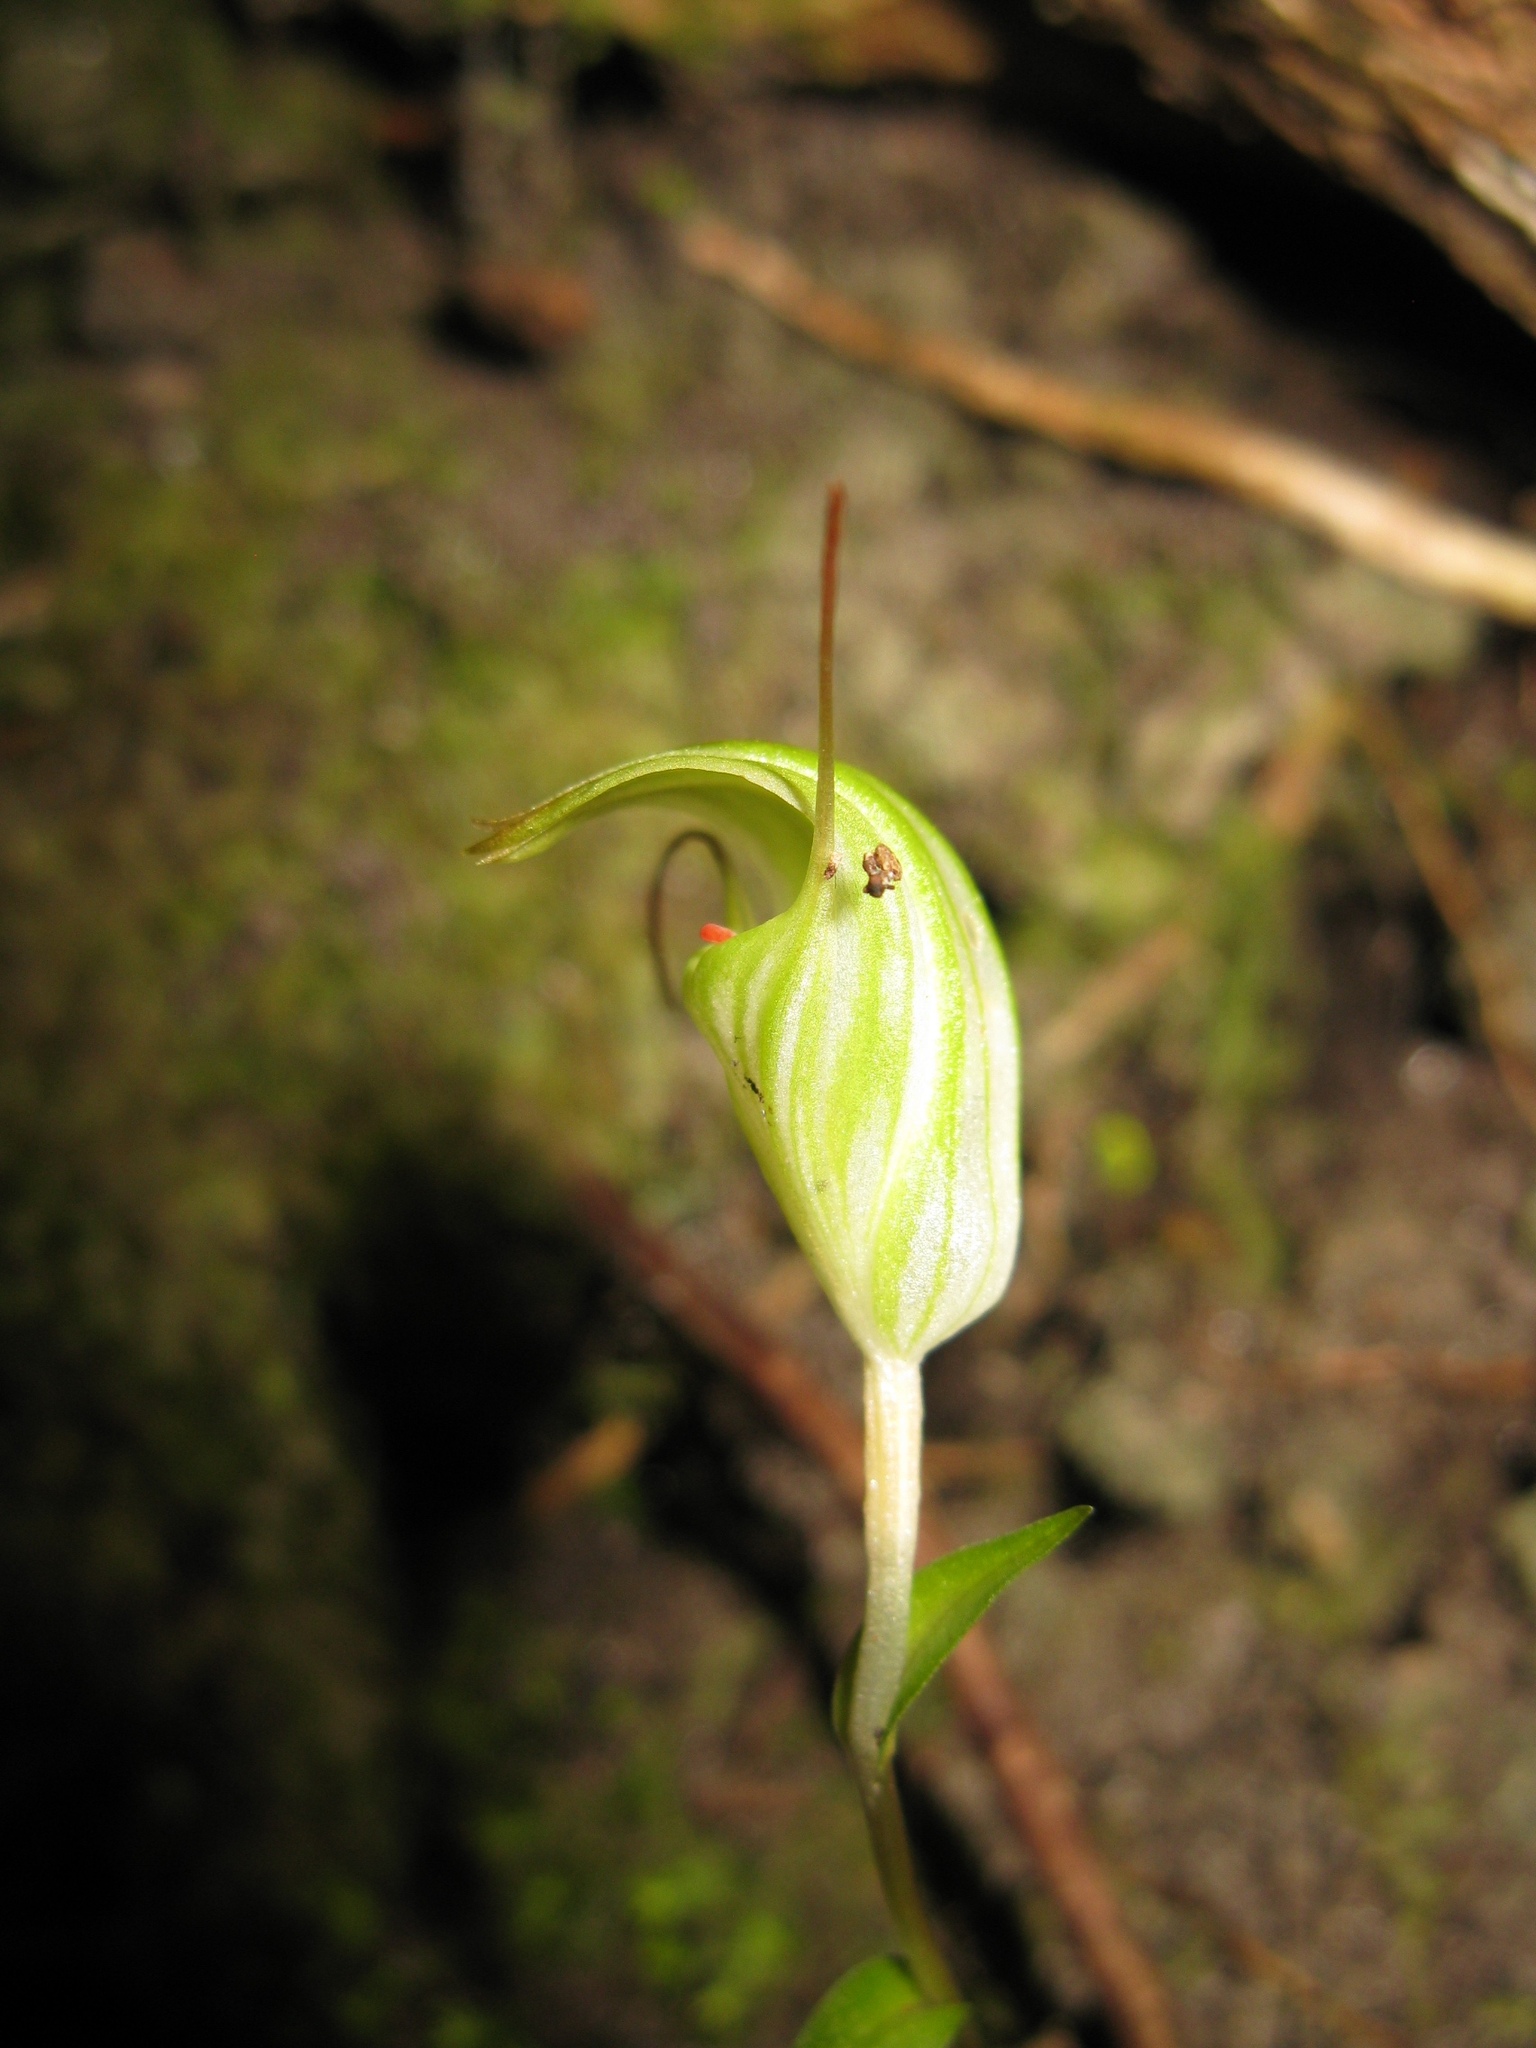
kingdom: Plantae
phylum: Tracheophyta
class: Liliopsida
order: Asparagales
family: Orchidaceae
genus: Pterostylis
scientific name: Pterostylis alobula
